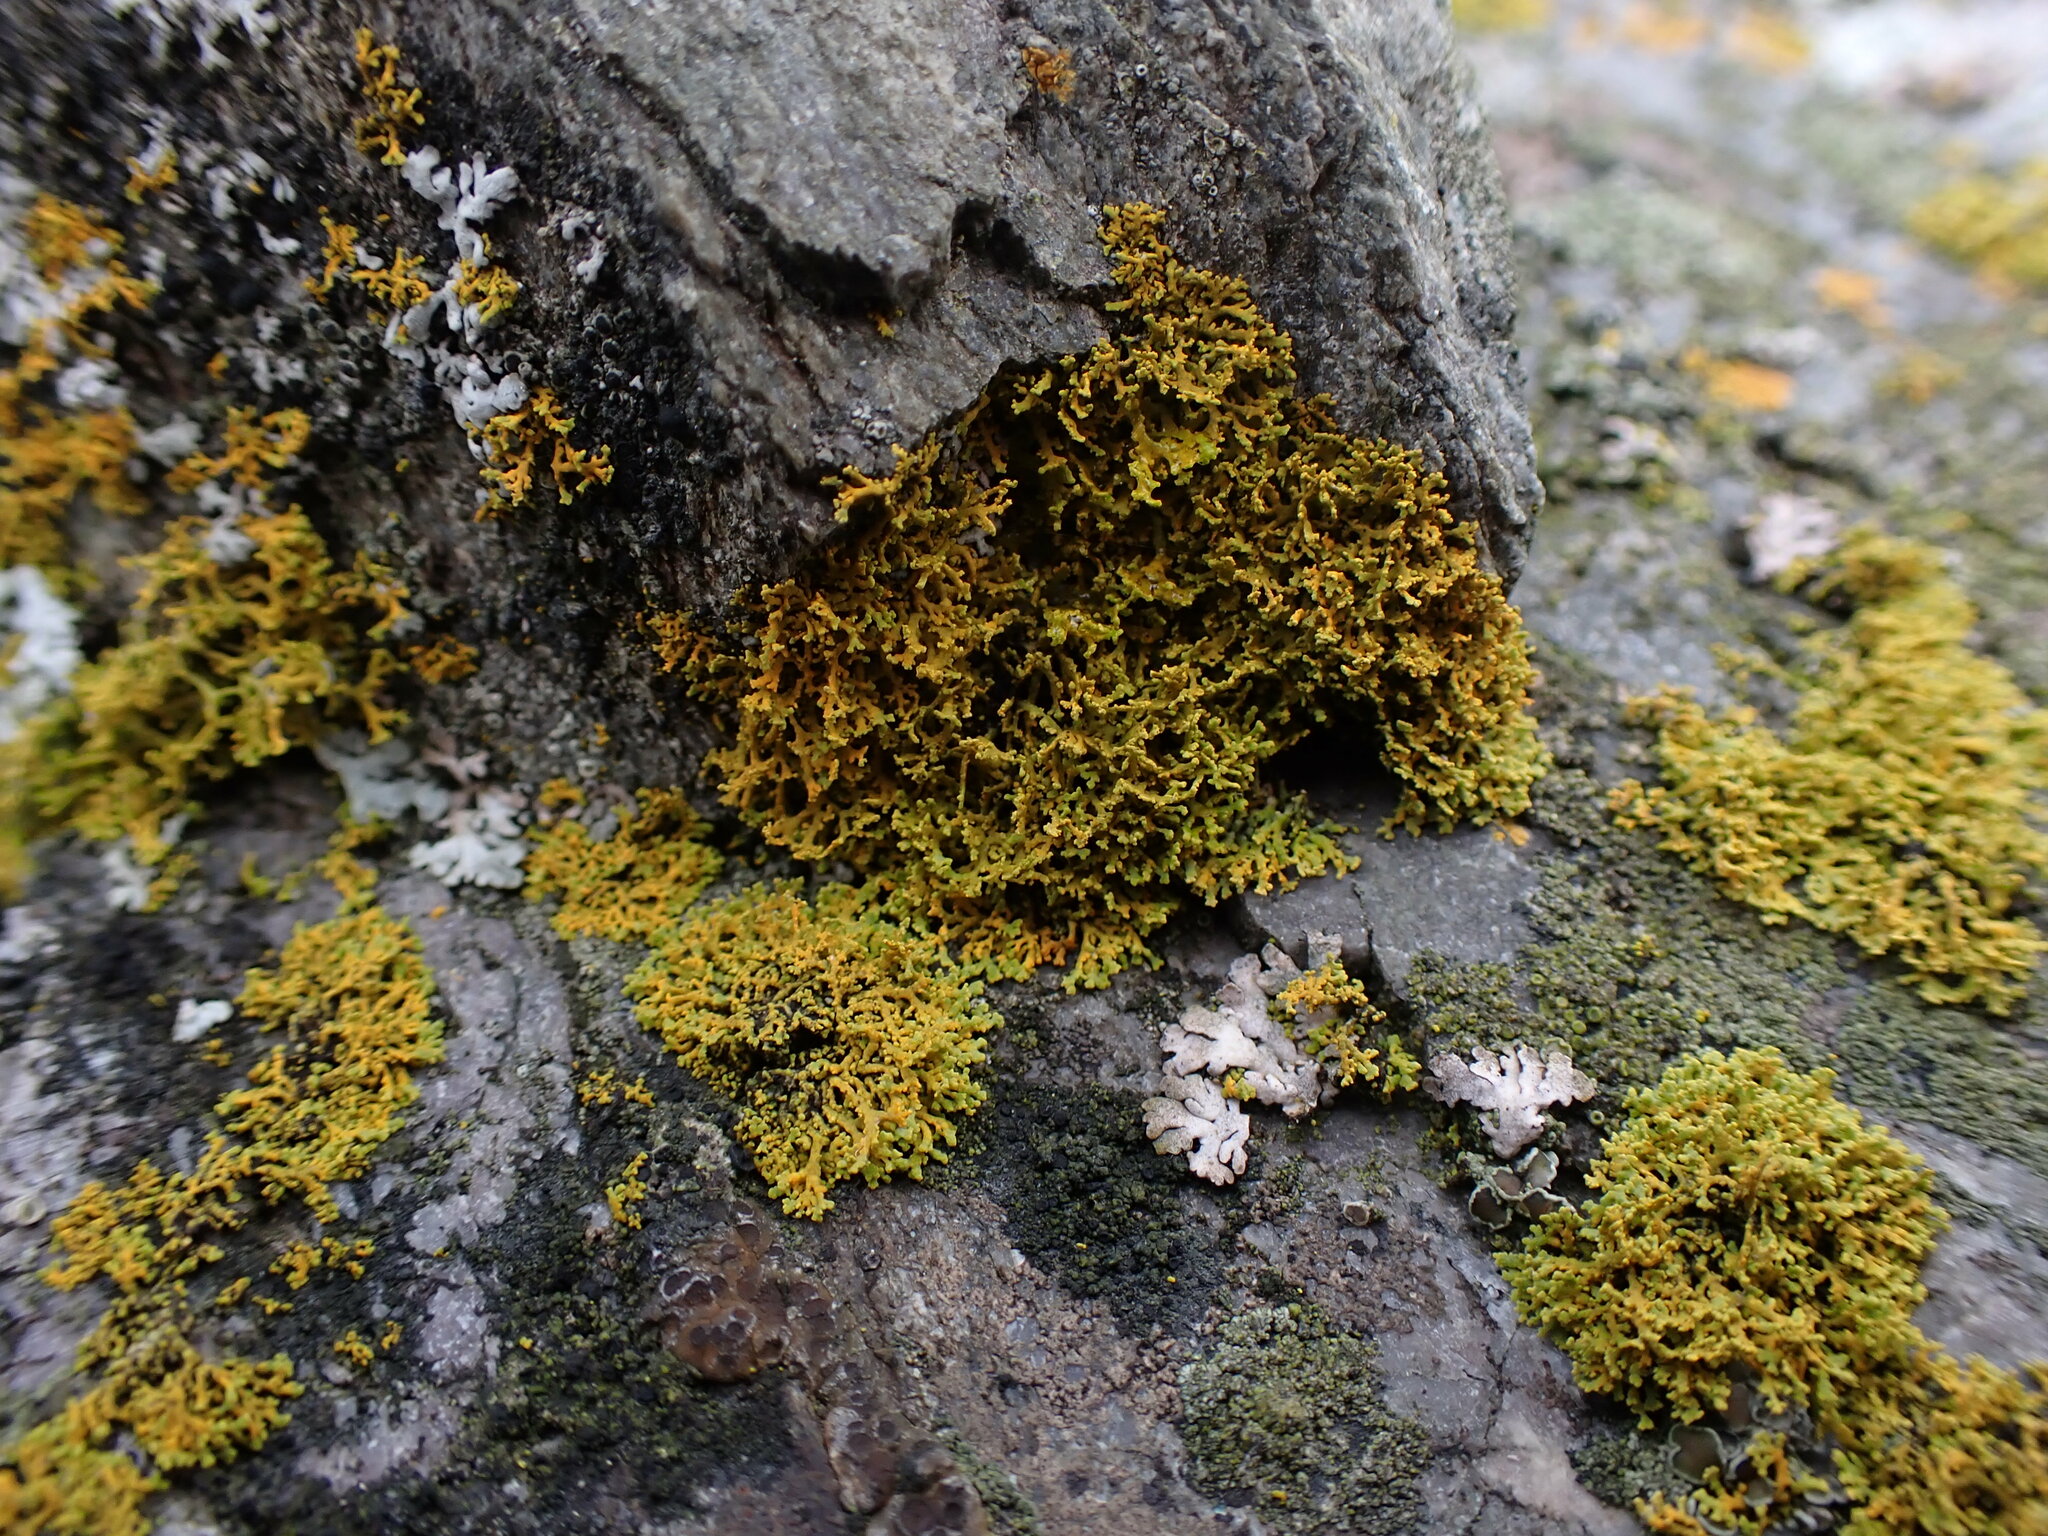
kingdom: Fungi
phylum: Ascomycota
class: Lecanoromycetes
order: Teloschistales
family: Teloschistaceae
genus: Polycauliona
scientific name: Polycauliona candelaria
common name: Shrubby sunburst lichen
